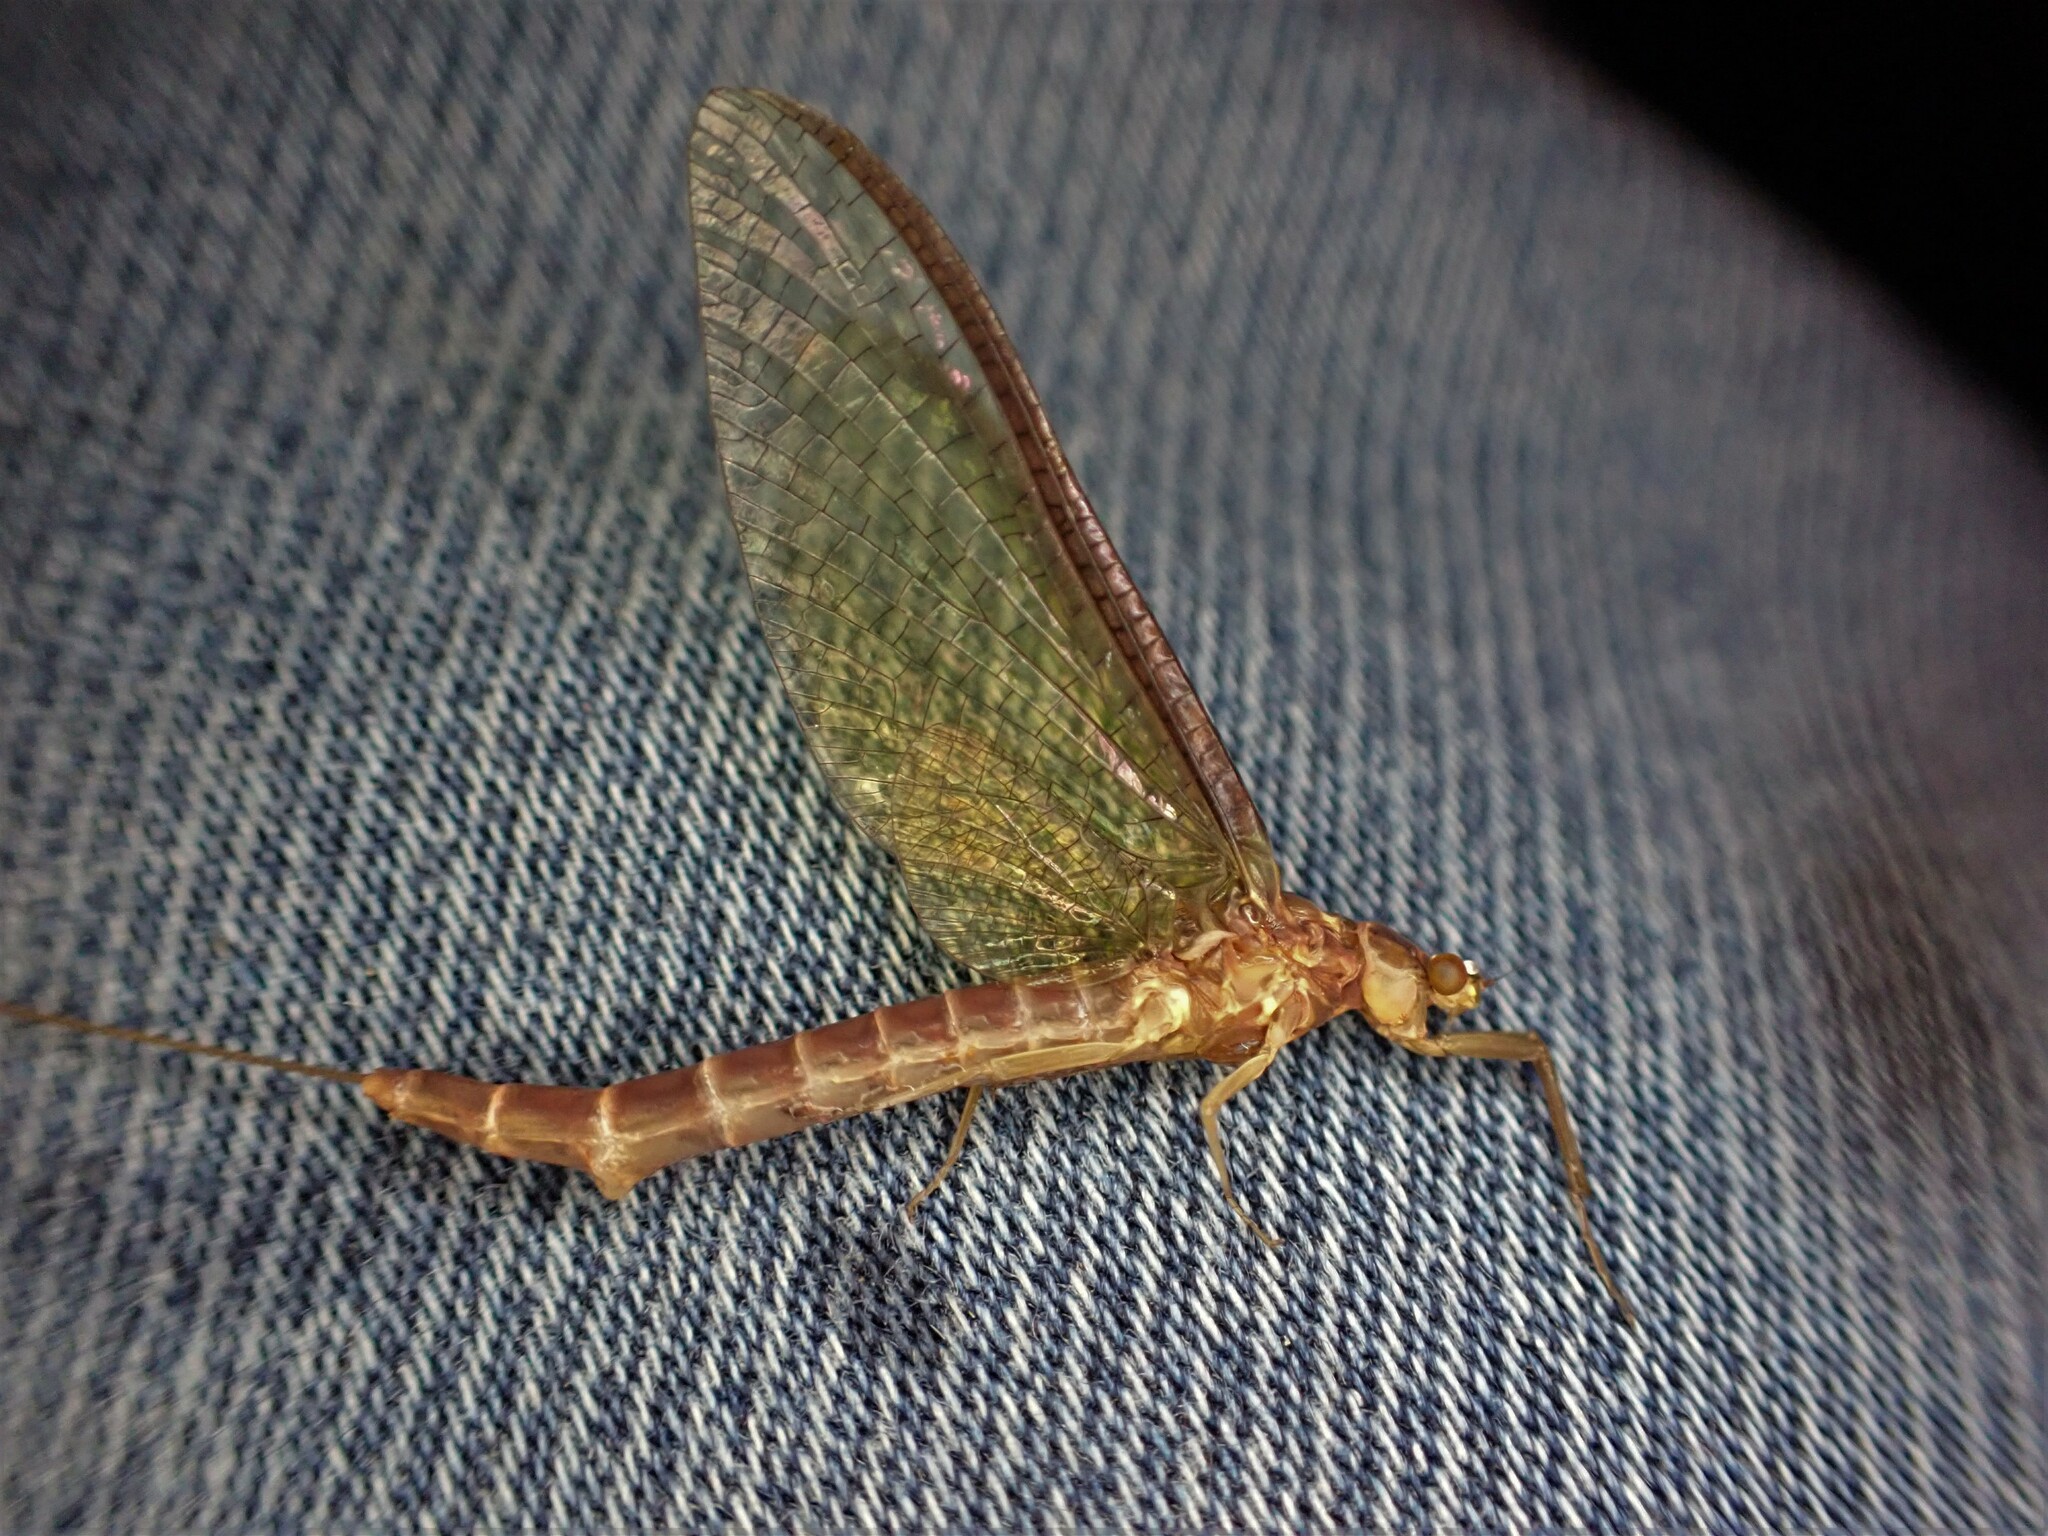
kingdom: Animalia
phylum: Arthropoda
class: Insecta
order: Ephemeroptera
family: Ichthybotidae
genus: Ichthybotus
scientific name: Ichthybotus hudsoni
